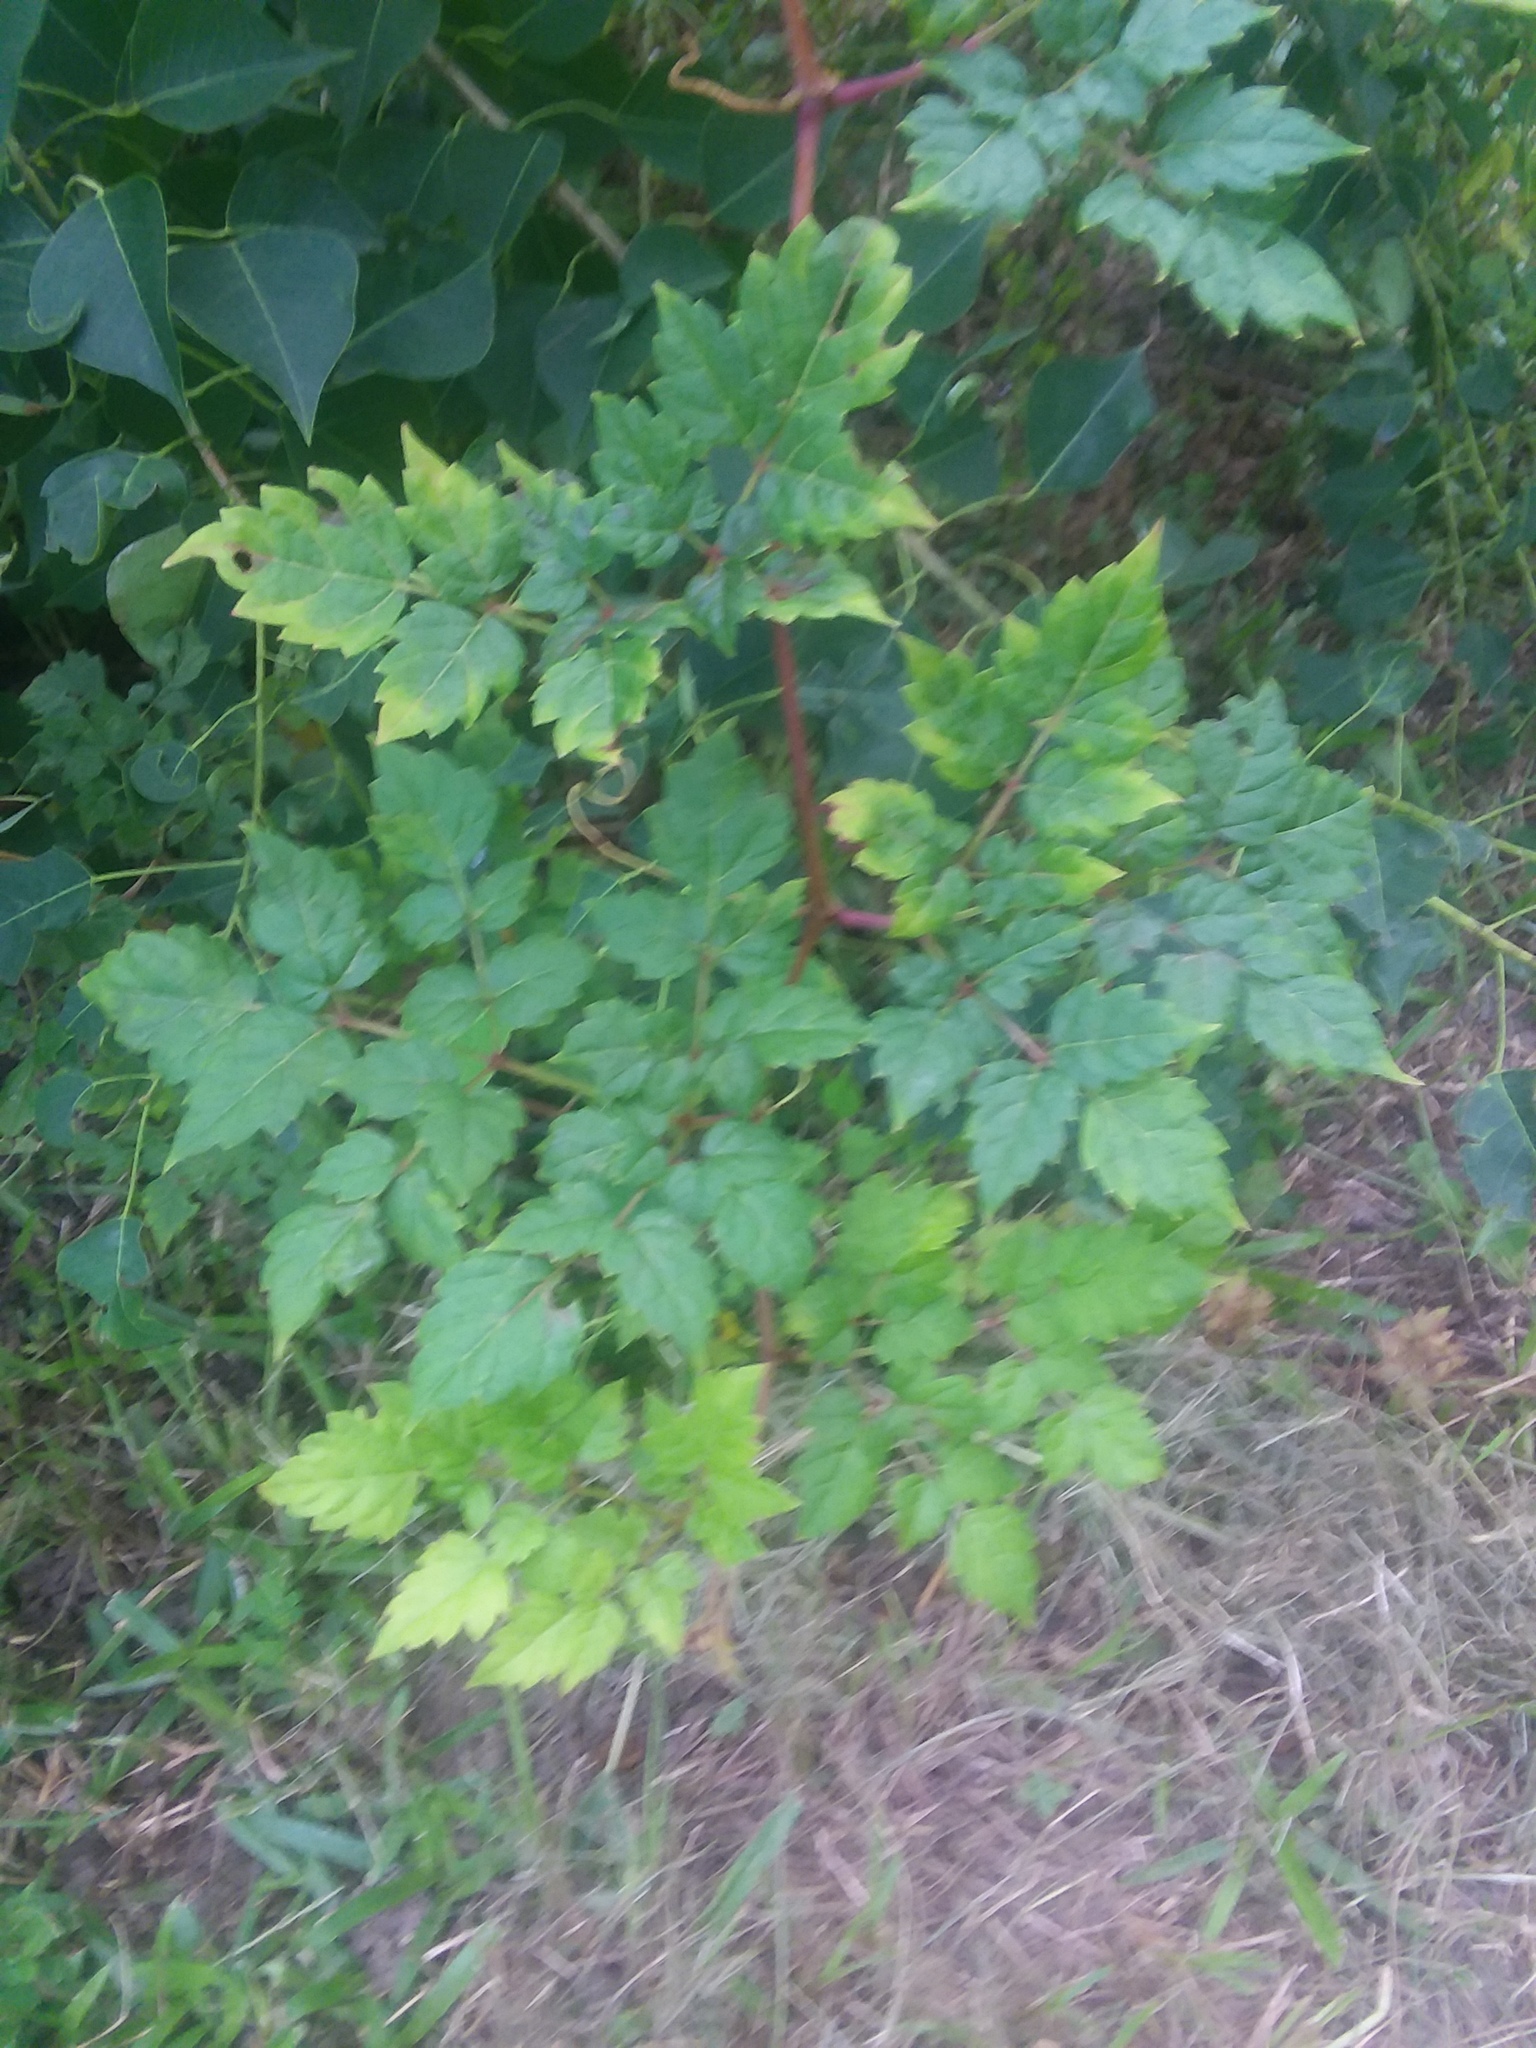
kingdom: Plantae
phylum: Tracheophyta
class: Magnoliopsida
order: Vitales
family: Vitaceae
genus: Nekemias
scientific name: Nekemias arborea
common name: Peppervine
